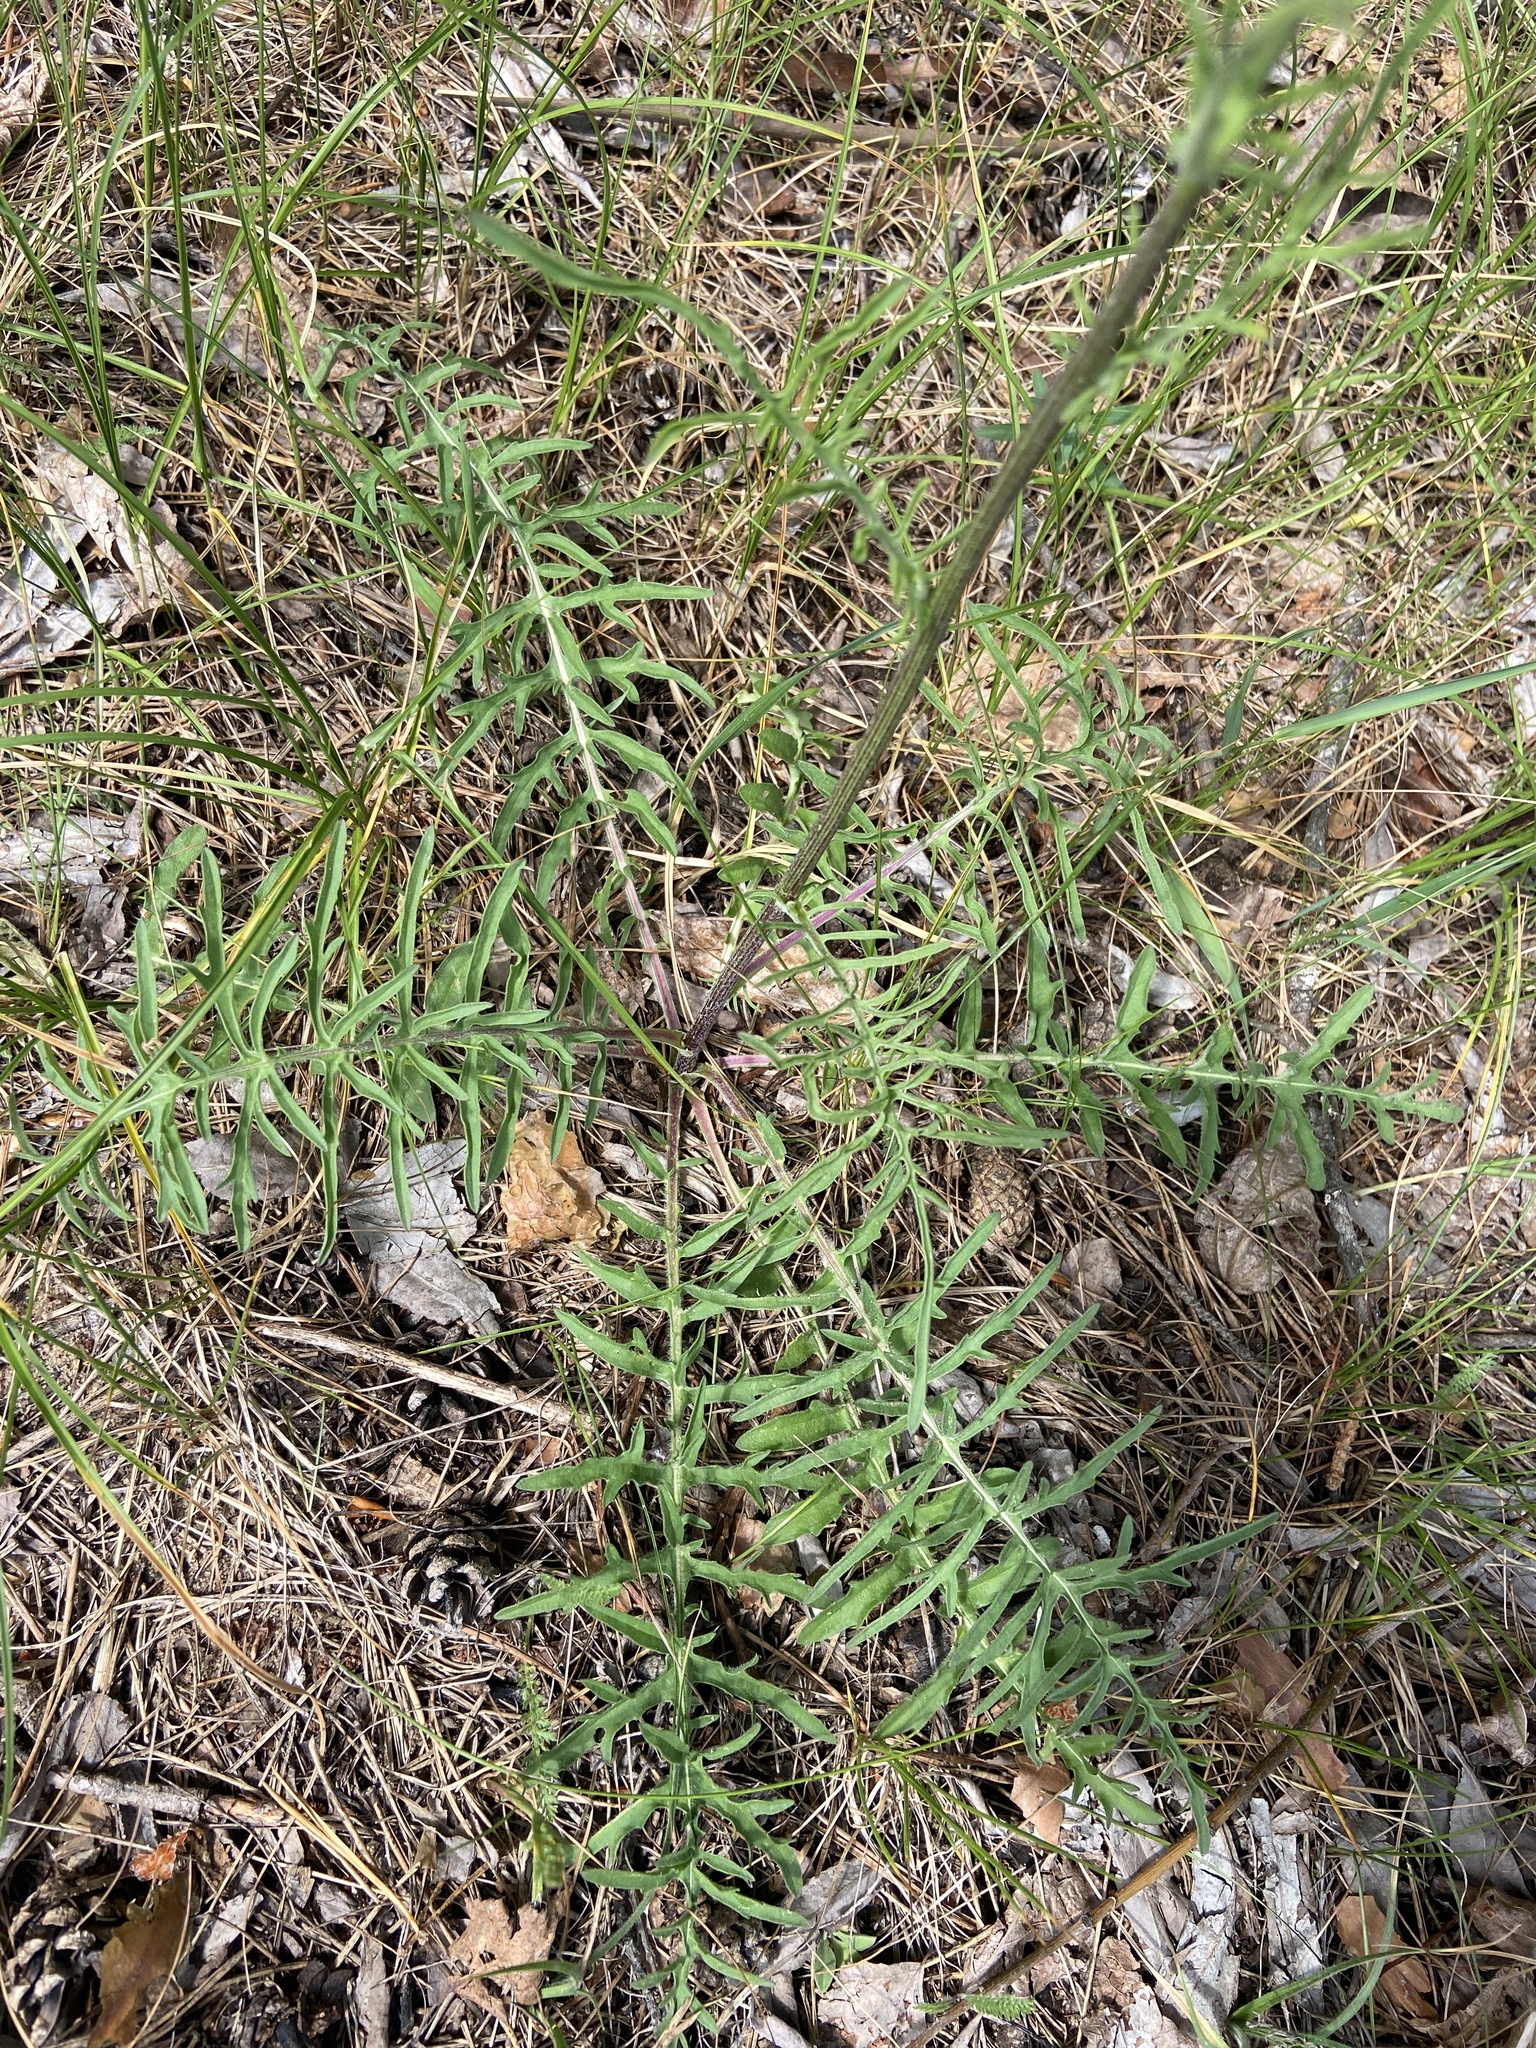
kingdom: Plantae
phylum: Tracheophyta
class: Magnoliopsida
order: Asterales
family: Asteraceae
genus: Centaurea
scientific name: Centaurea scabiosa
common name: Greater knapweed
